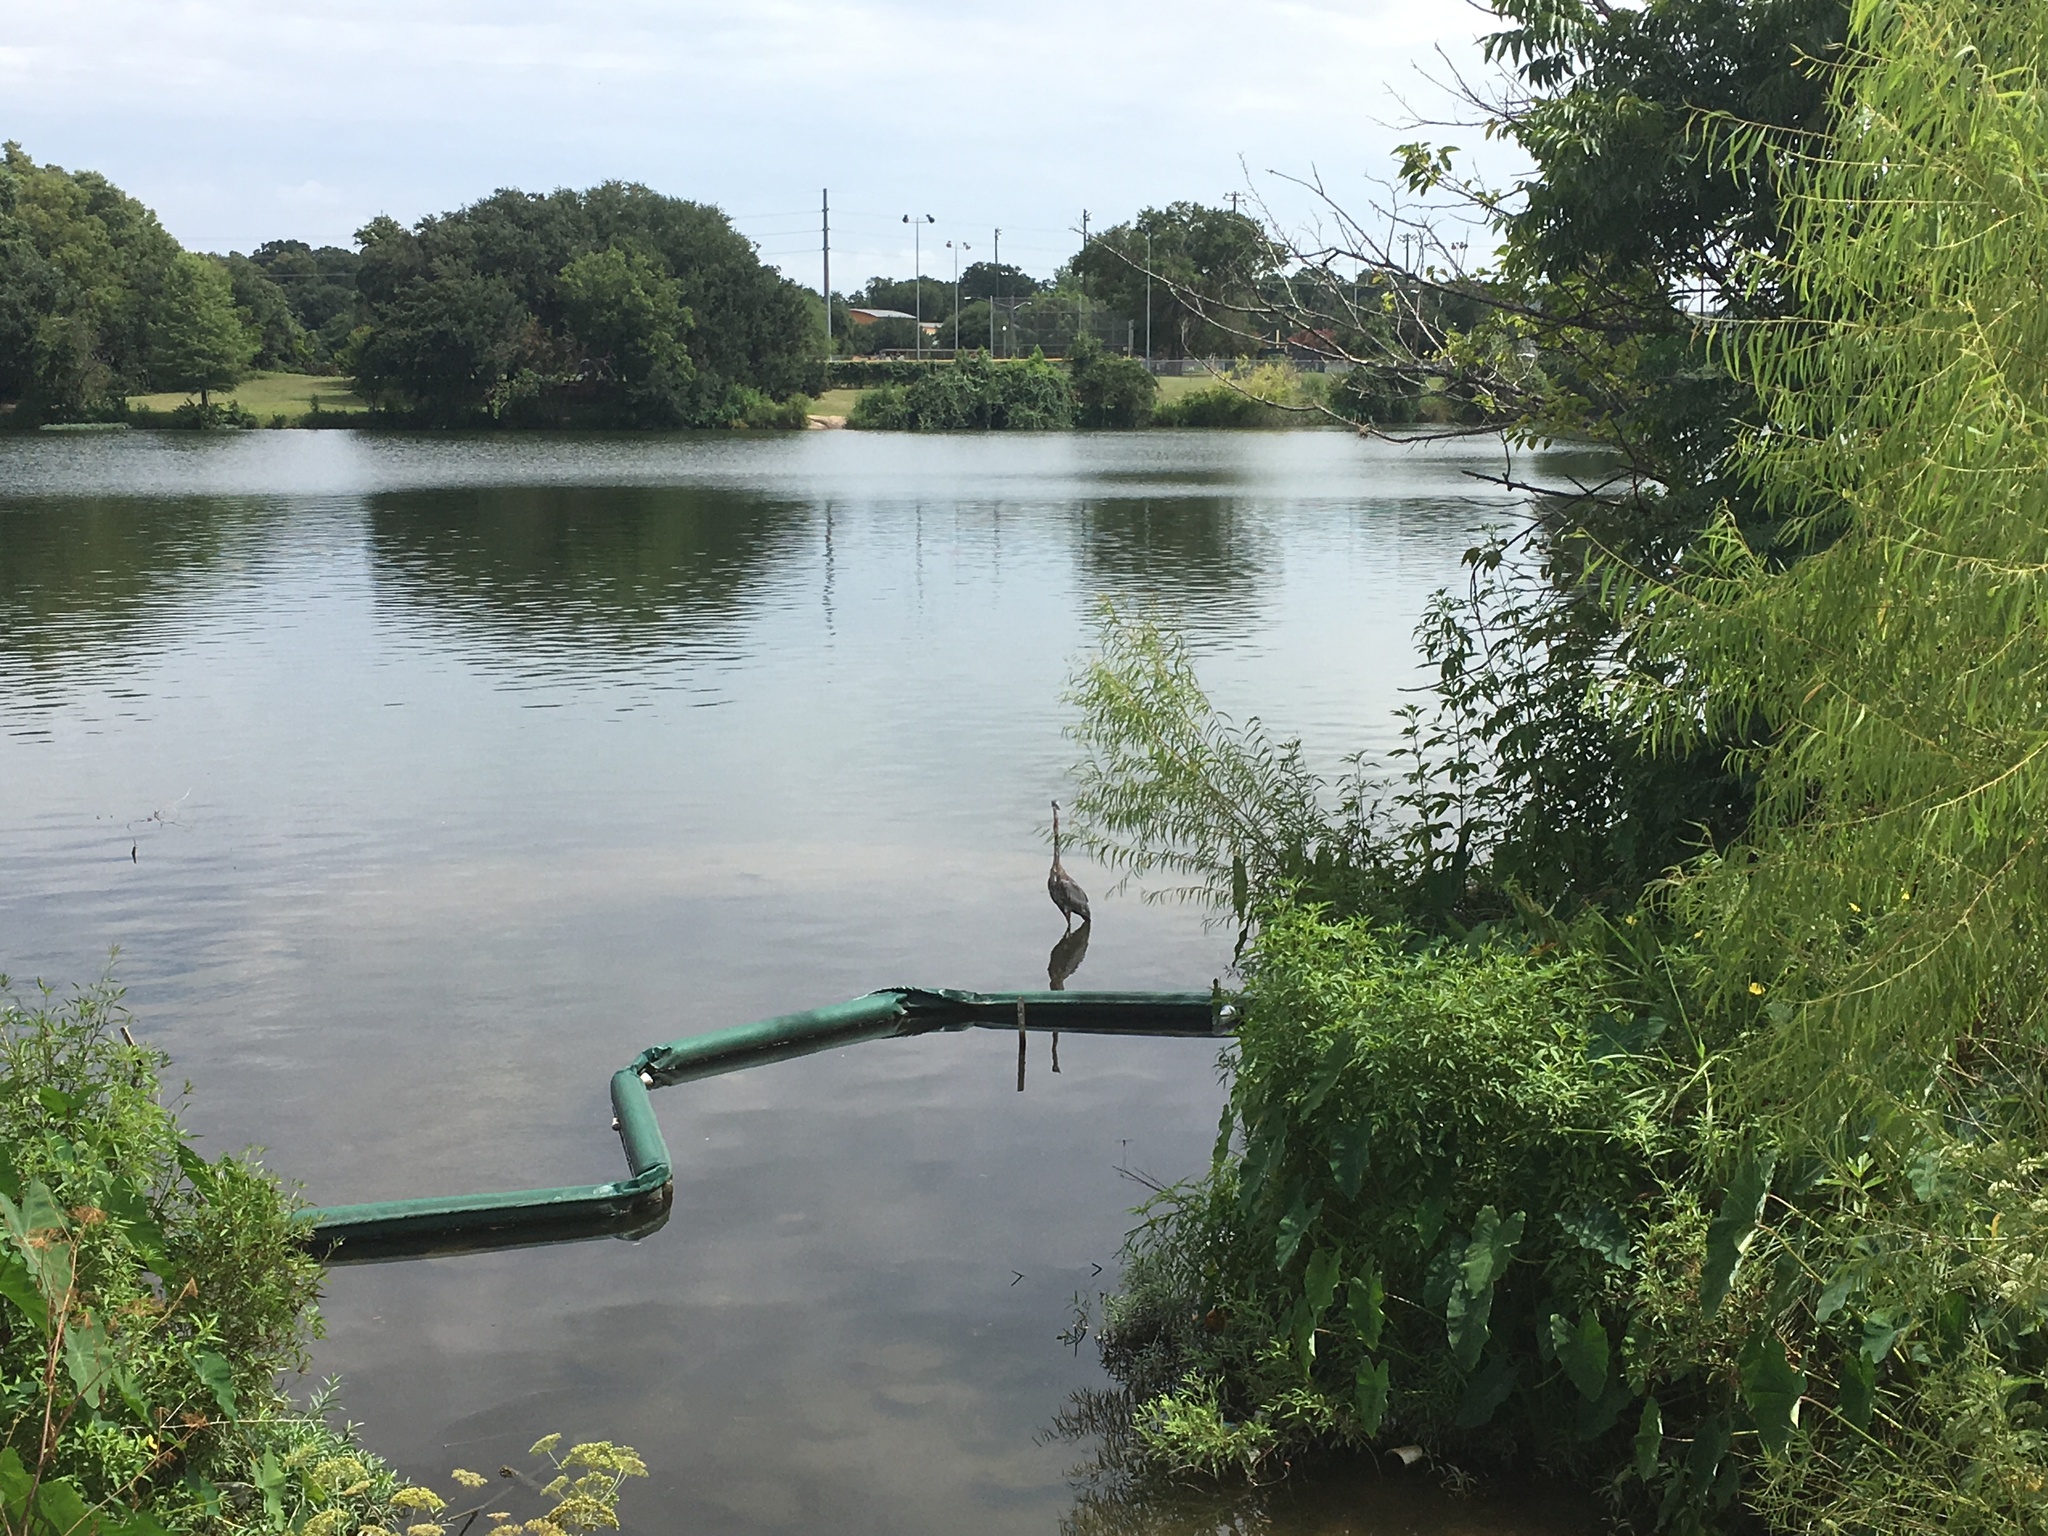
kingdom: Animalia
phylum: Chordata
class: Aves
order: Pelecaniformes
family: Ardeidae
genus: Ardea
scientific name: Ardea herodias
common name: Great blue heron
